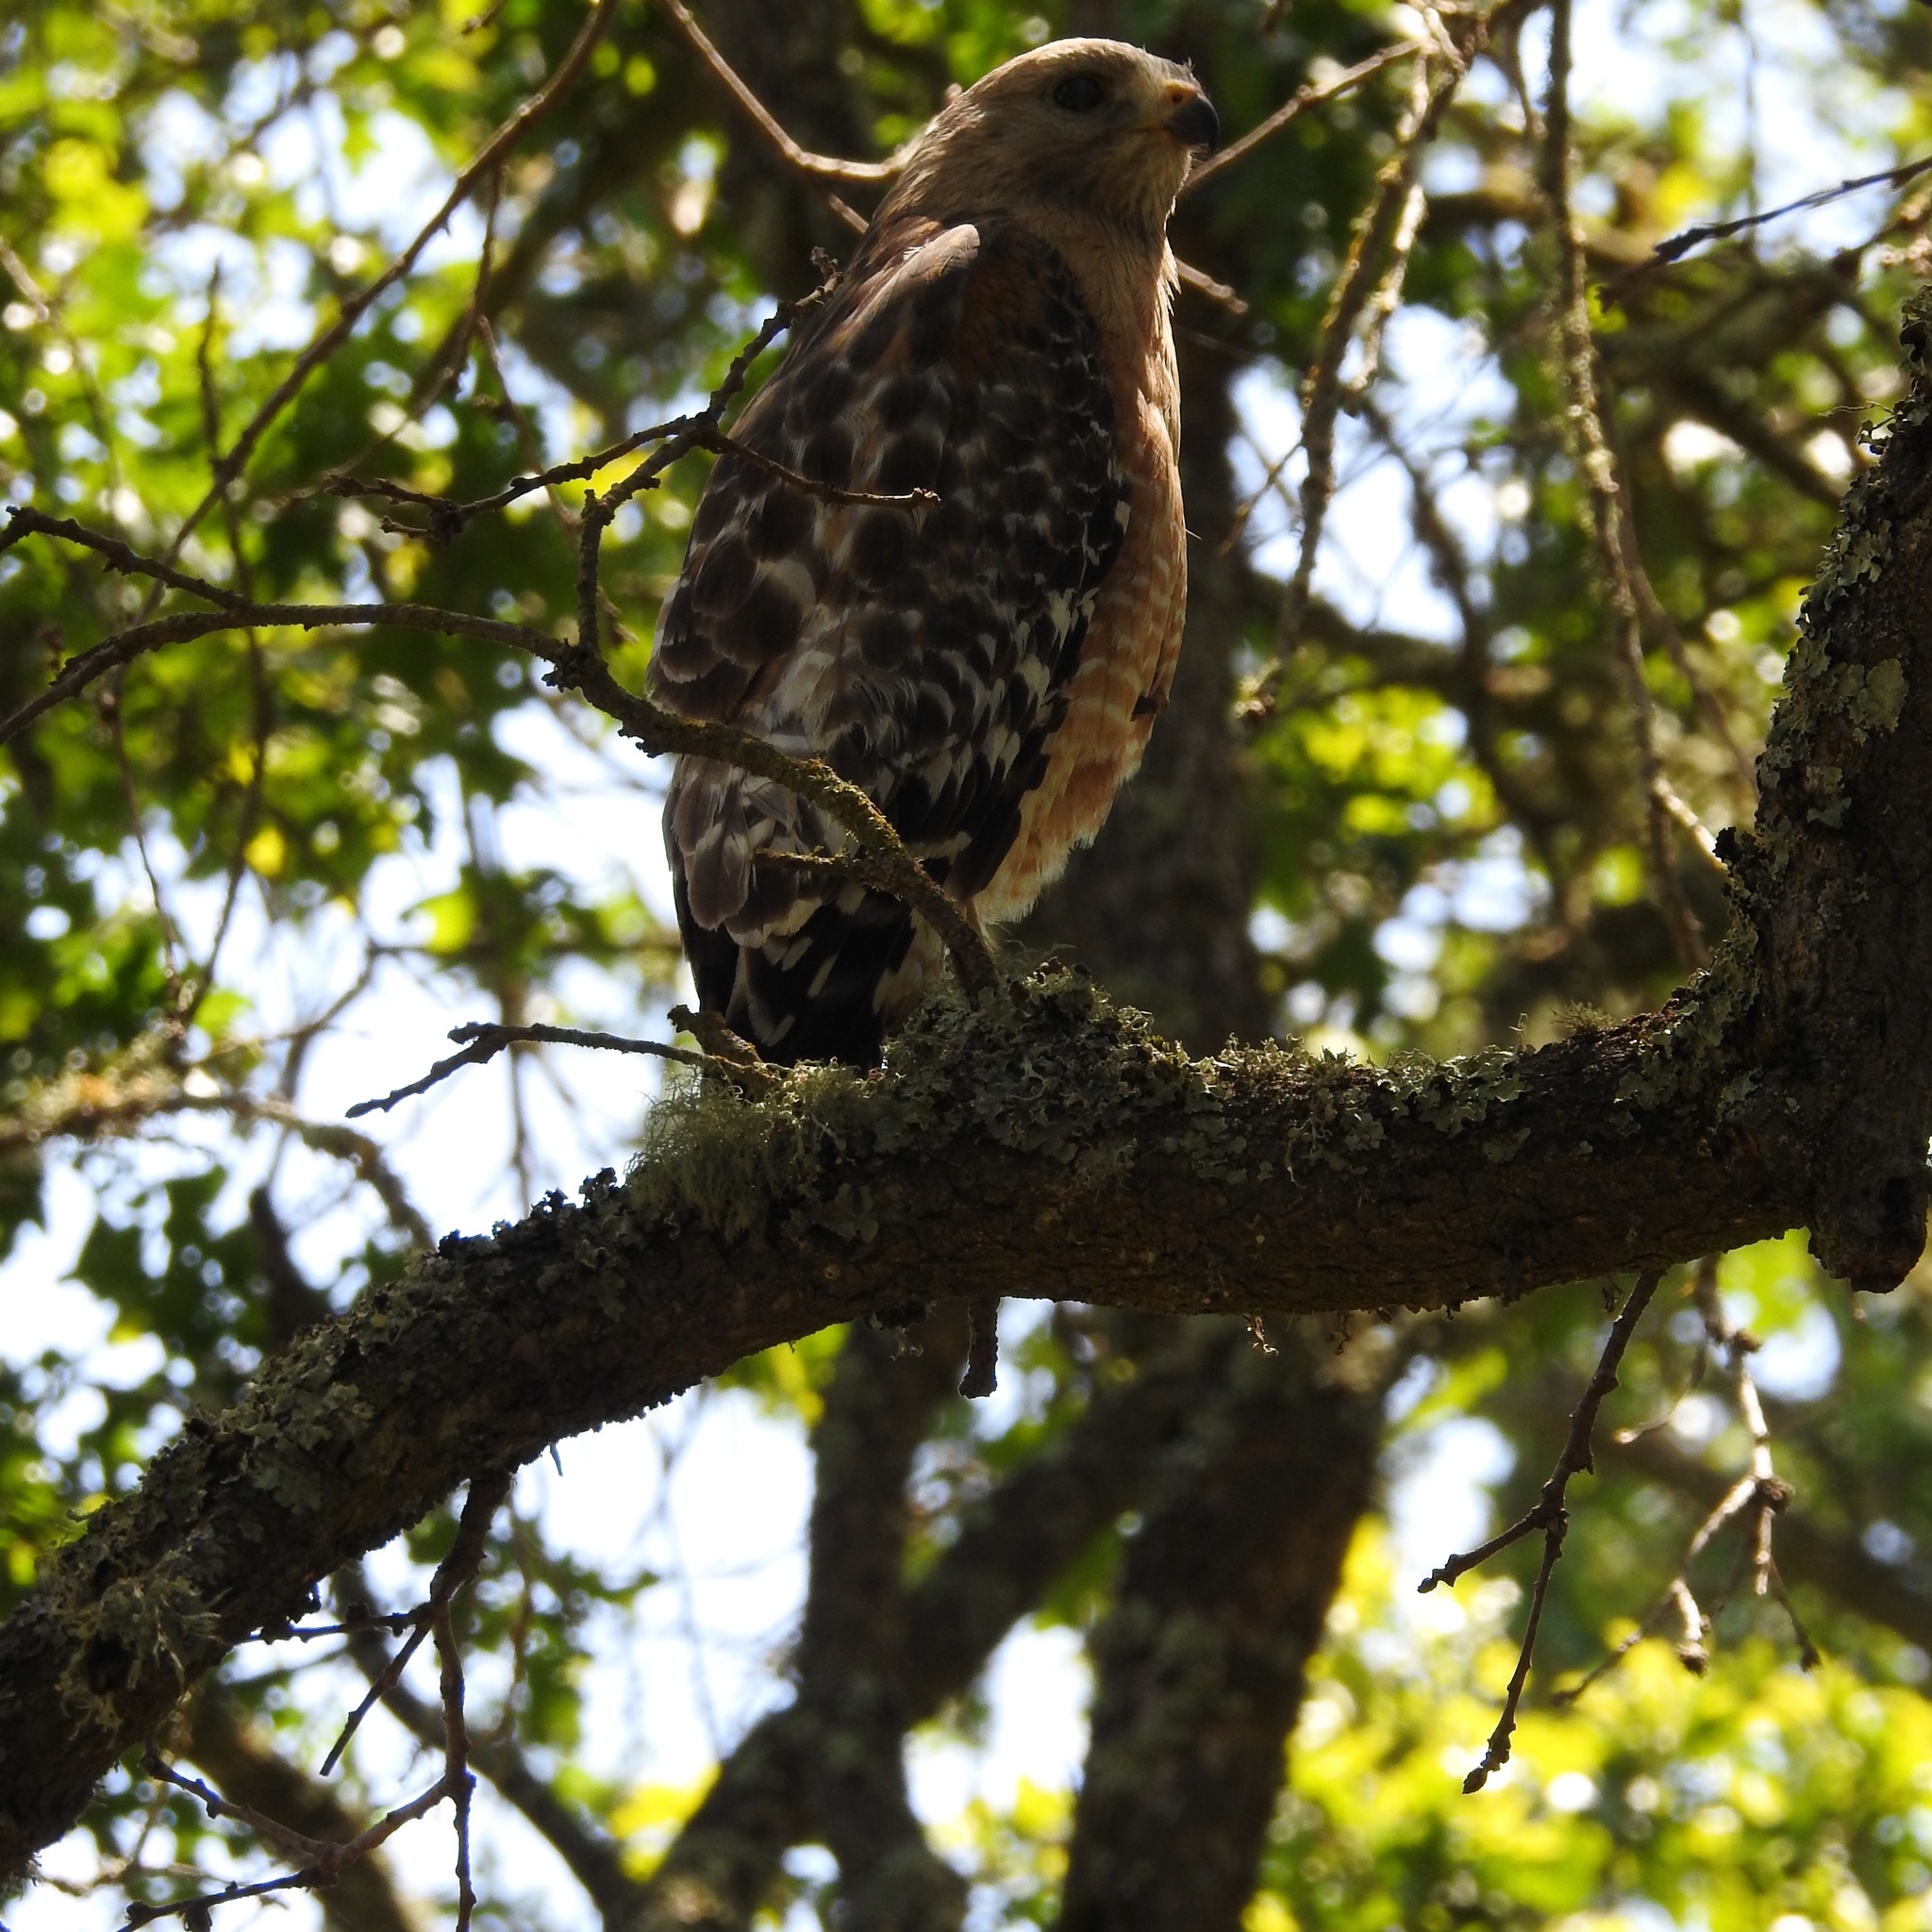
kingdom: Animalia
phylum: Chordata
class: Aves
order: Accipitriformes
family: Accipitridae
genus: Buteo
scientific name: Buteo lineatus
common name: Red-shouldered hawk
